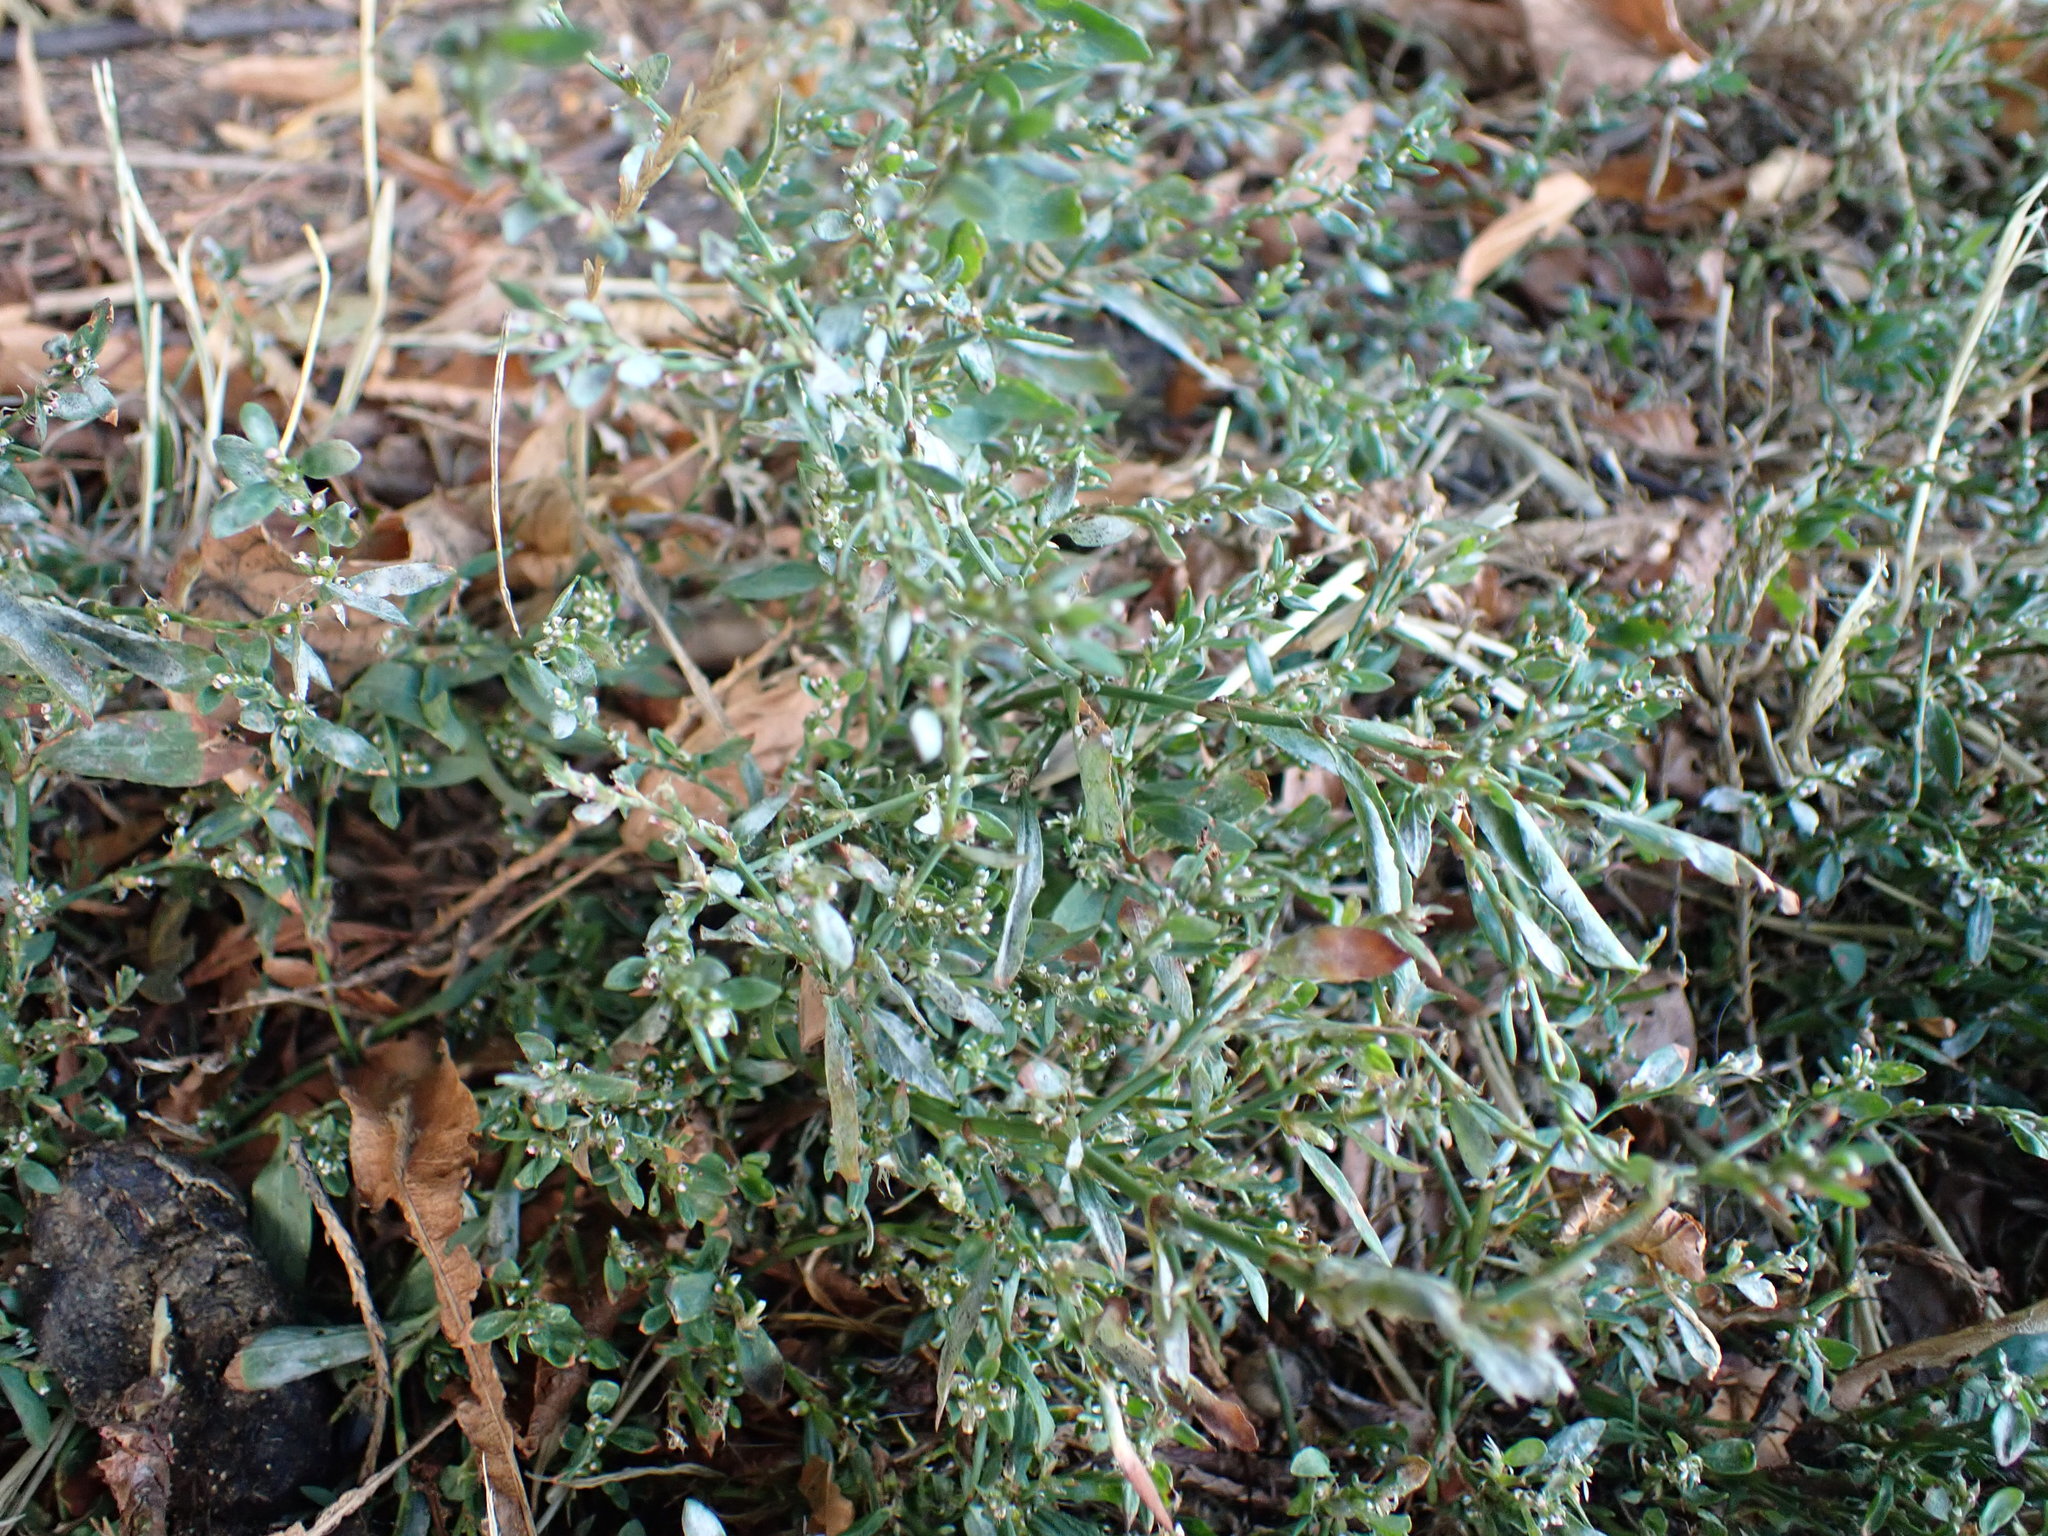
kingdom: Plantae
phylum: Tracheophyta
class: Magnoliopsida
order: Caryophyllales
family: Polygonaceae
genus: Polygonum
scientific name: Polygonum aviculare
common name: Prostrate knotweed
